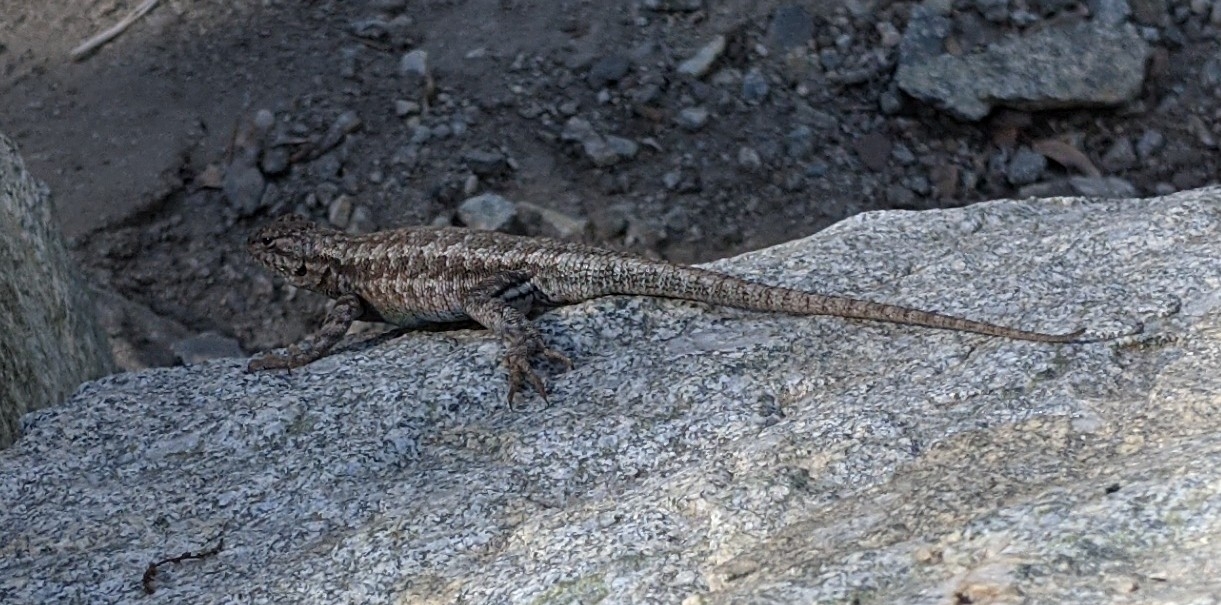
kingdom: Animalia
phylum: Chordata
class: Squamata
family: Phrynosomatidae
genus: Sceloporus
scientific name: Sceloporus graciosus
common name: Sagebrush lizard
